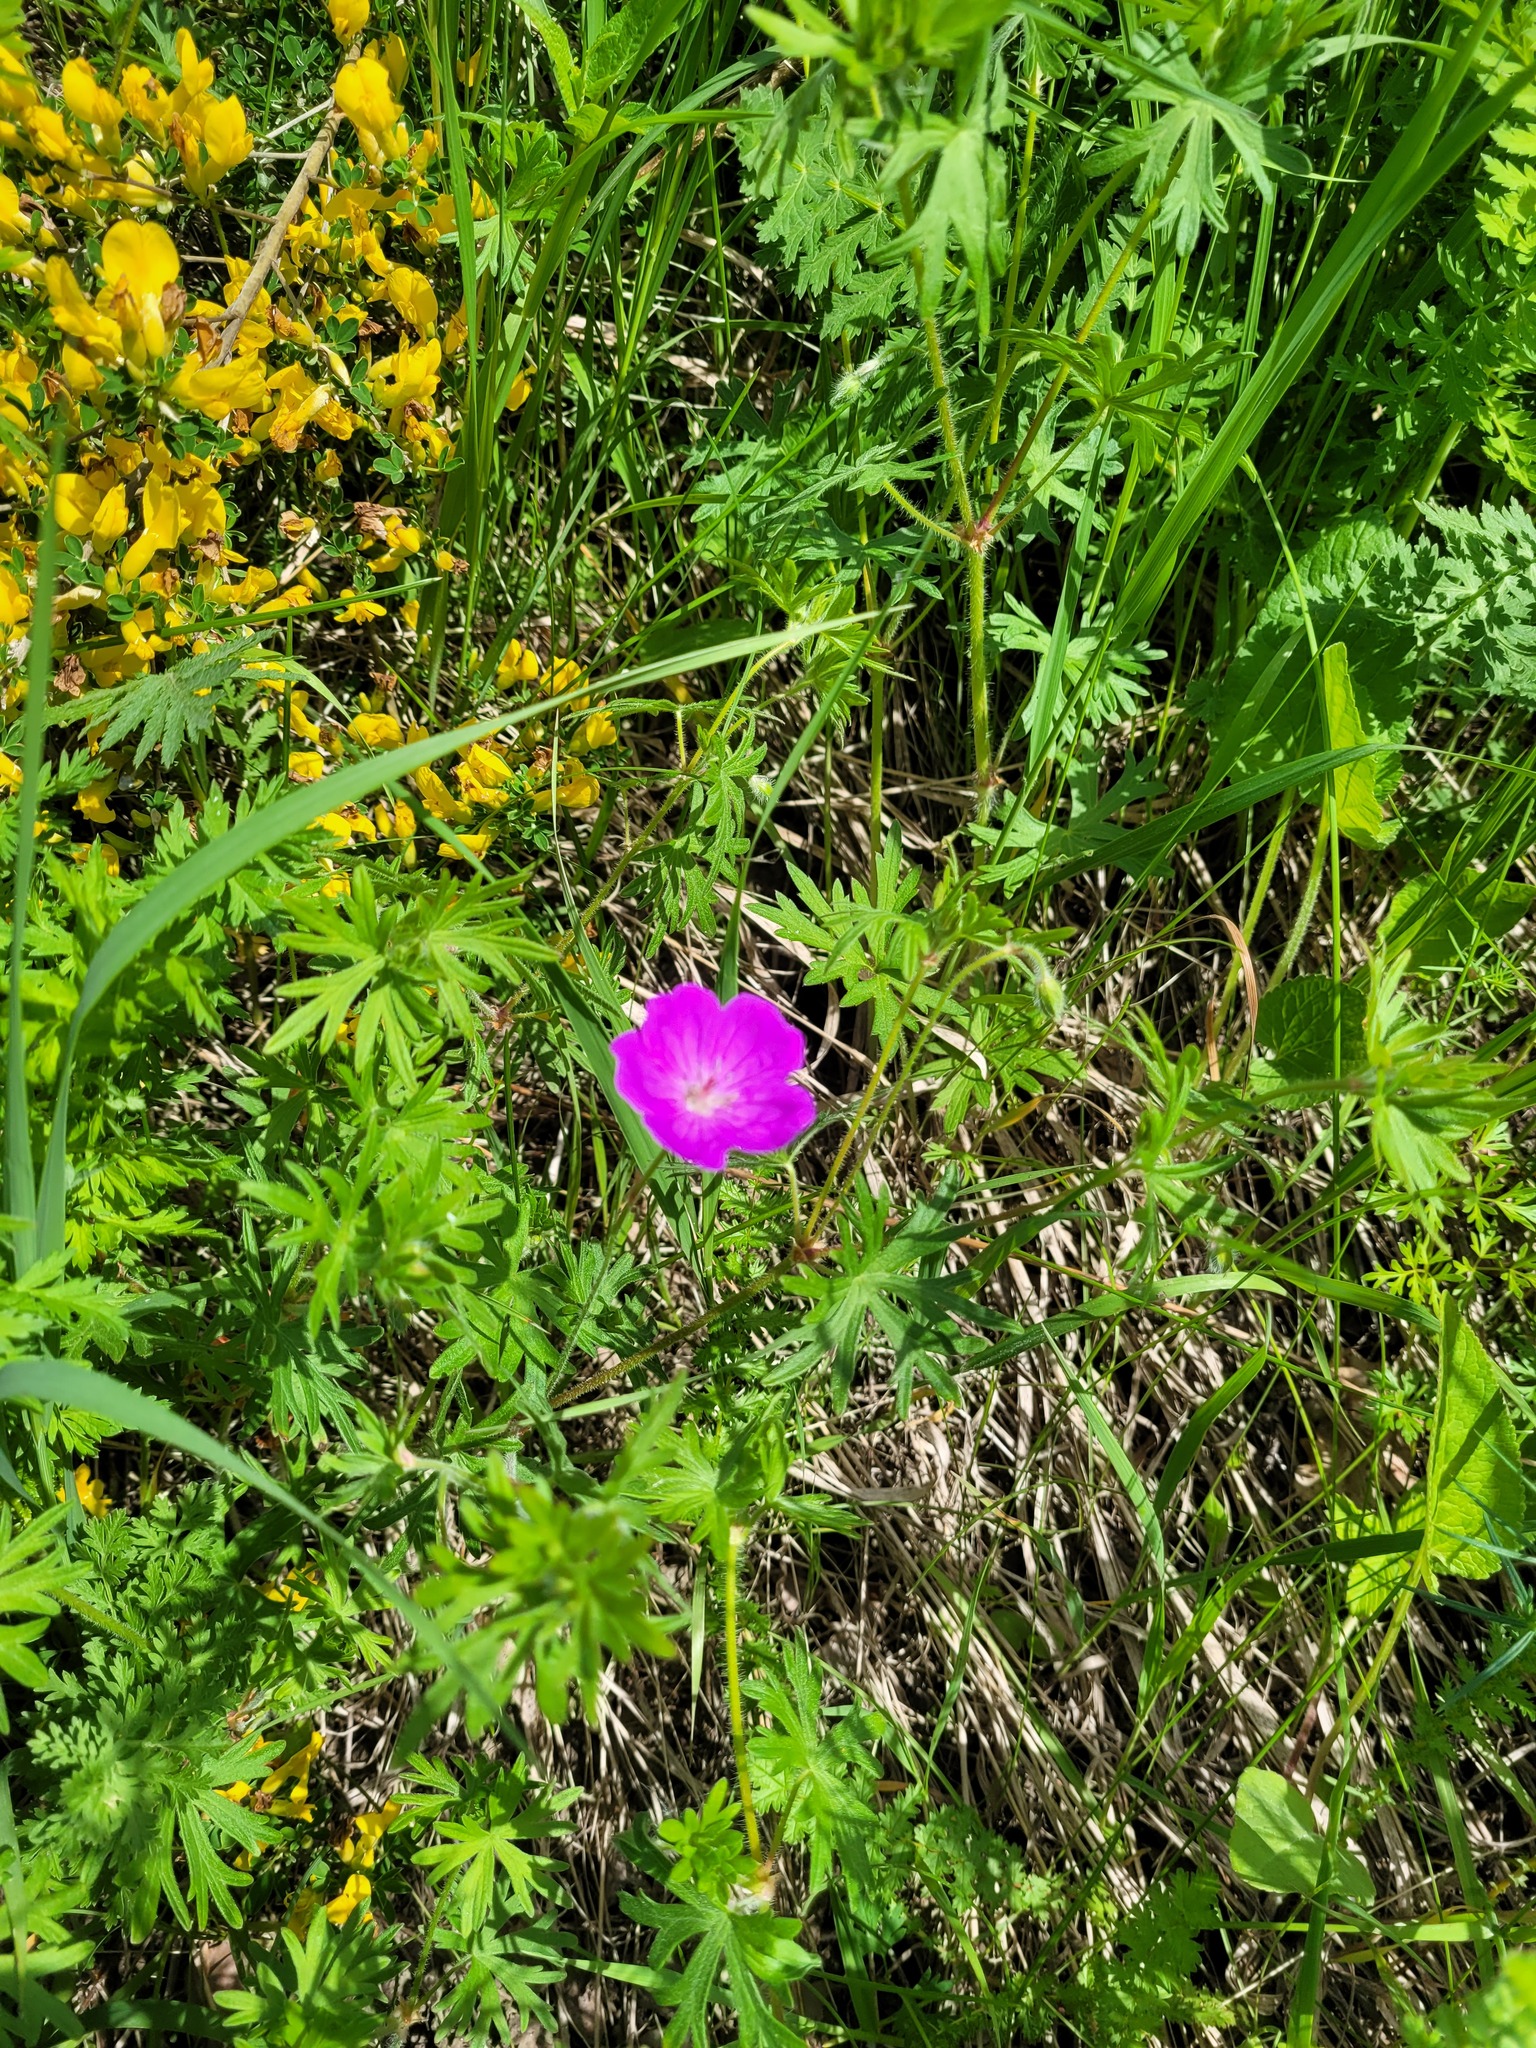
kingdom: Plantae
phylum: Tracheophyta
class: Magnoliopsida
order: Geraniales
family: Geraniaceae
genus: Geranium
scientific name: Geranium sanguineum
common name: Bloody crane's-bill
